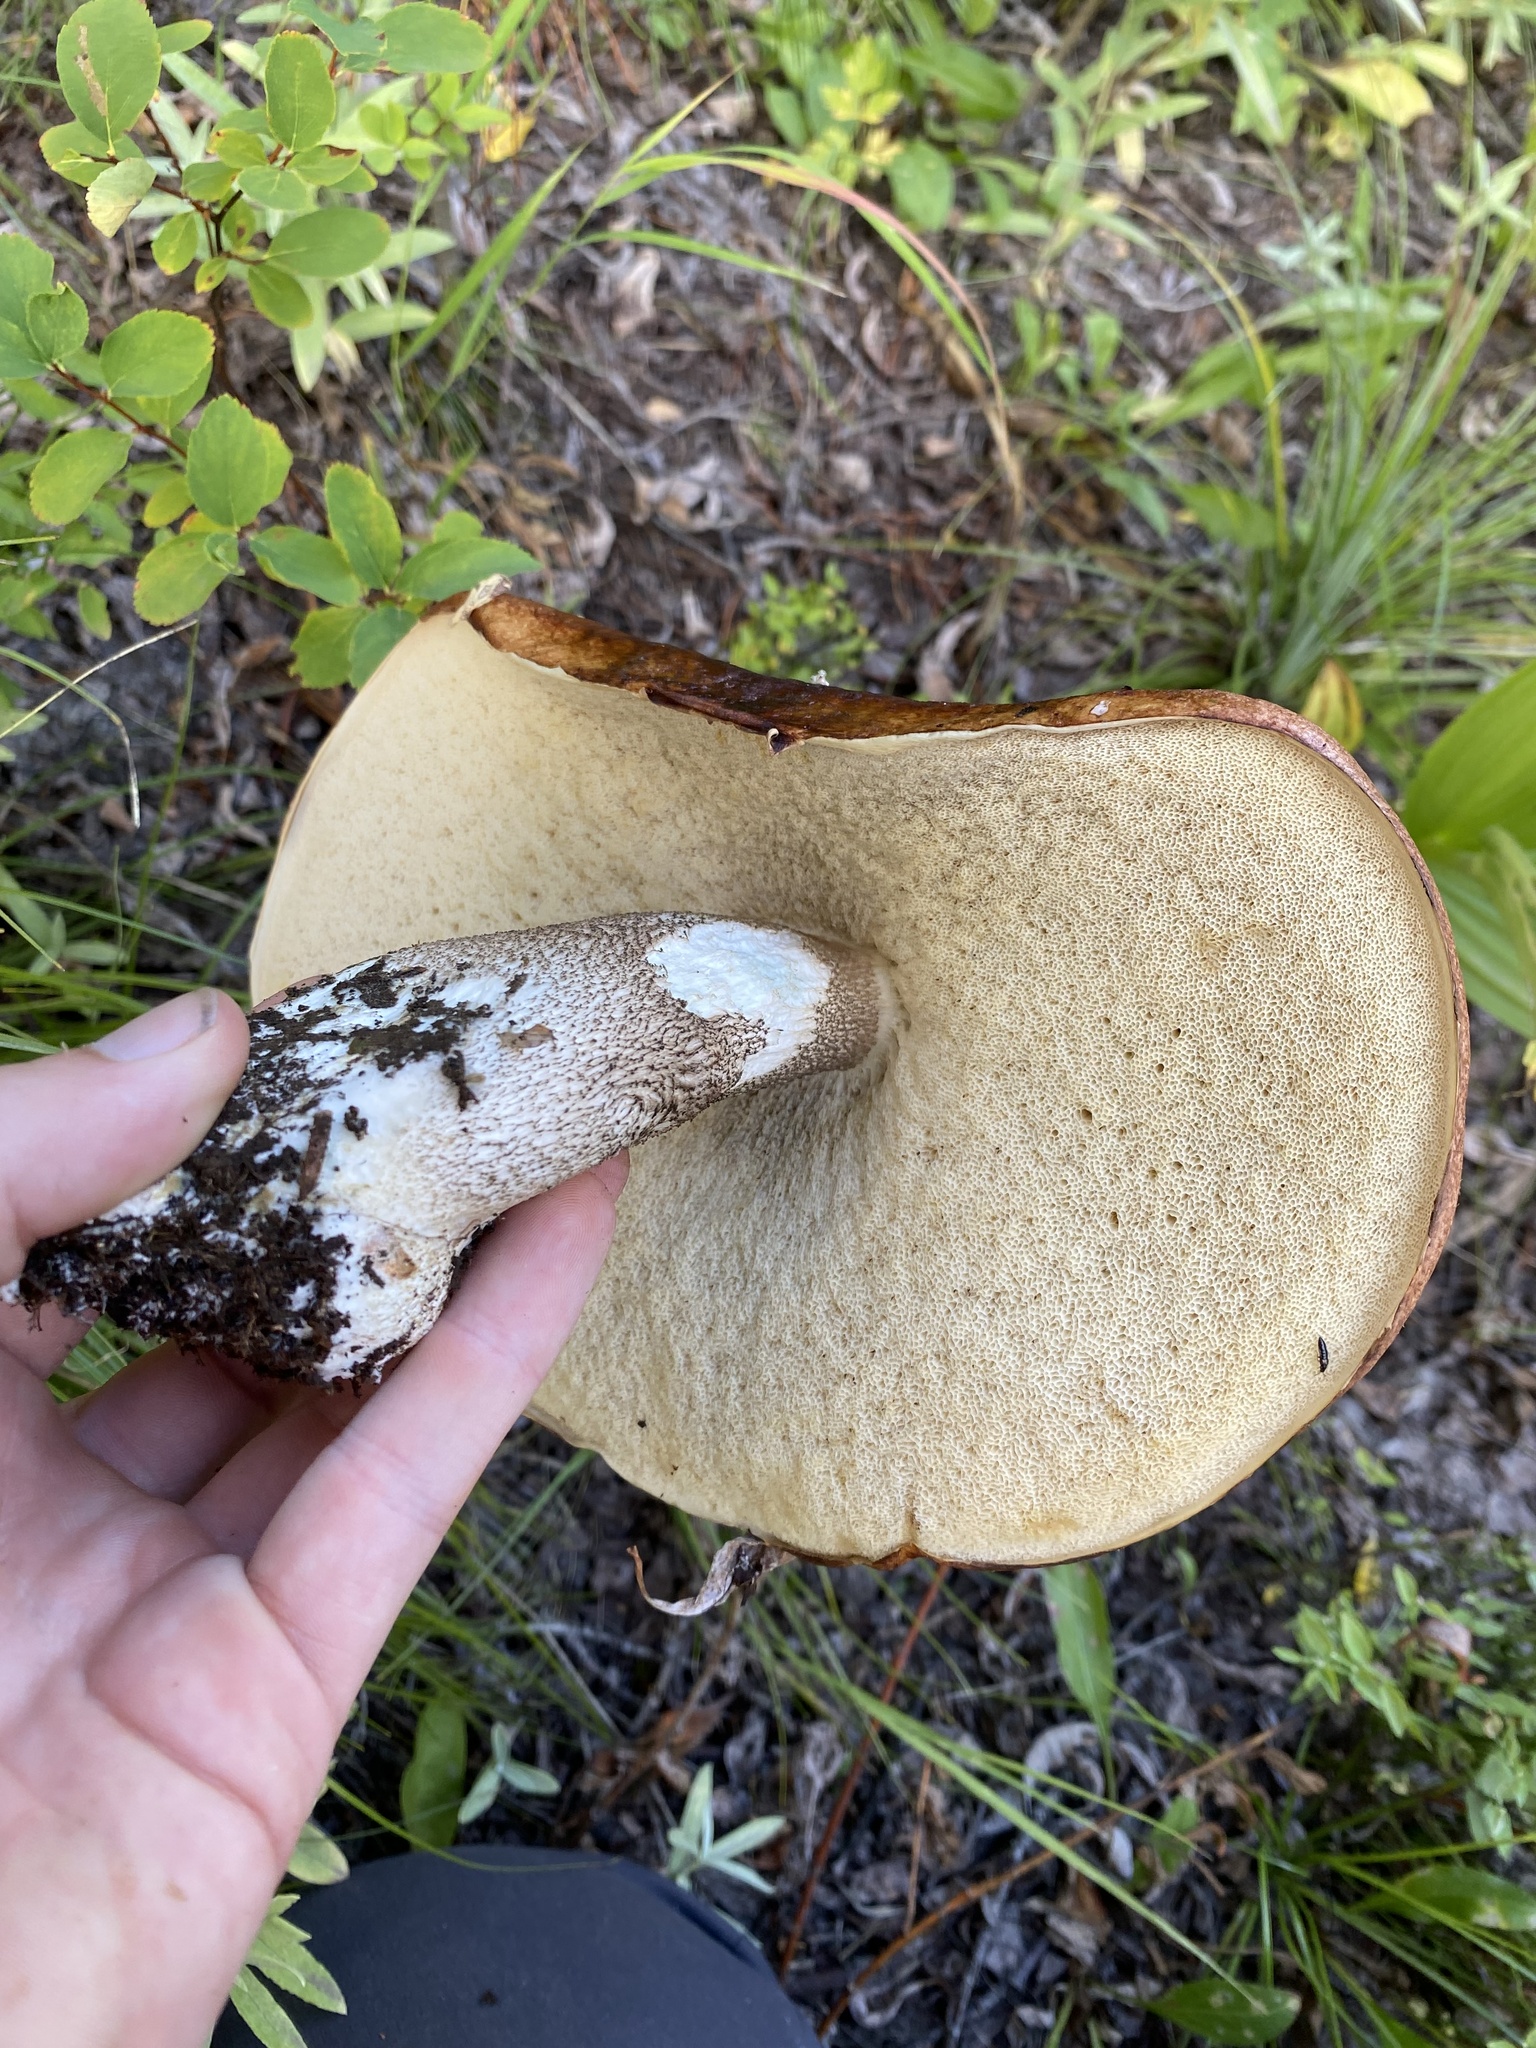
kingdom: Fungi
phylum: Basidiomycota
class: Agaricomycetes
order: Boletales
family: Boletaceae
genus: Leccinum
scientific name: Leccinum insigne
